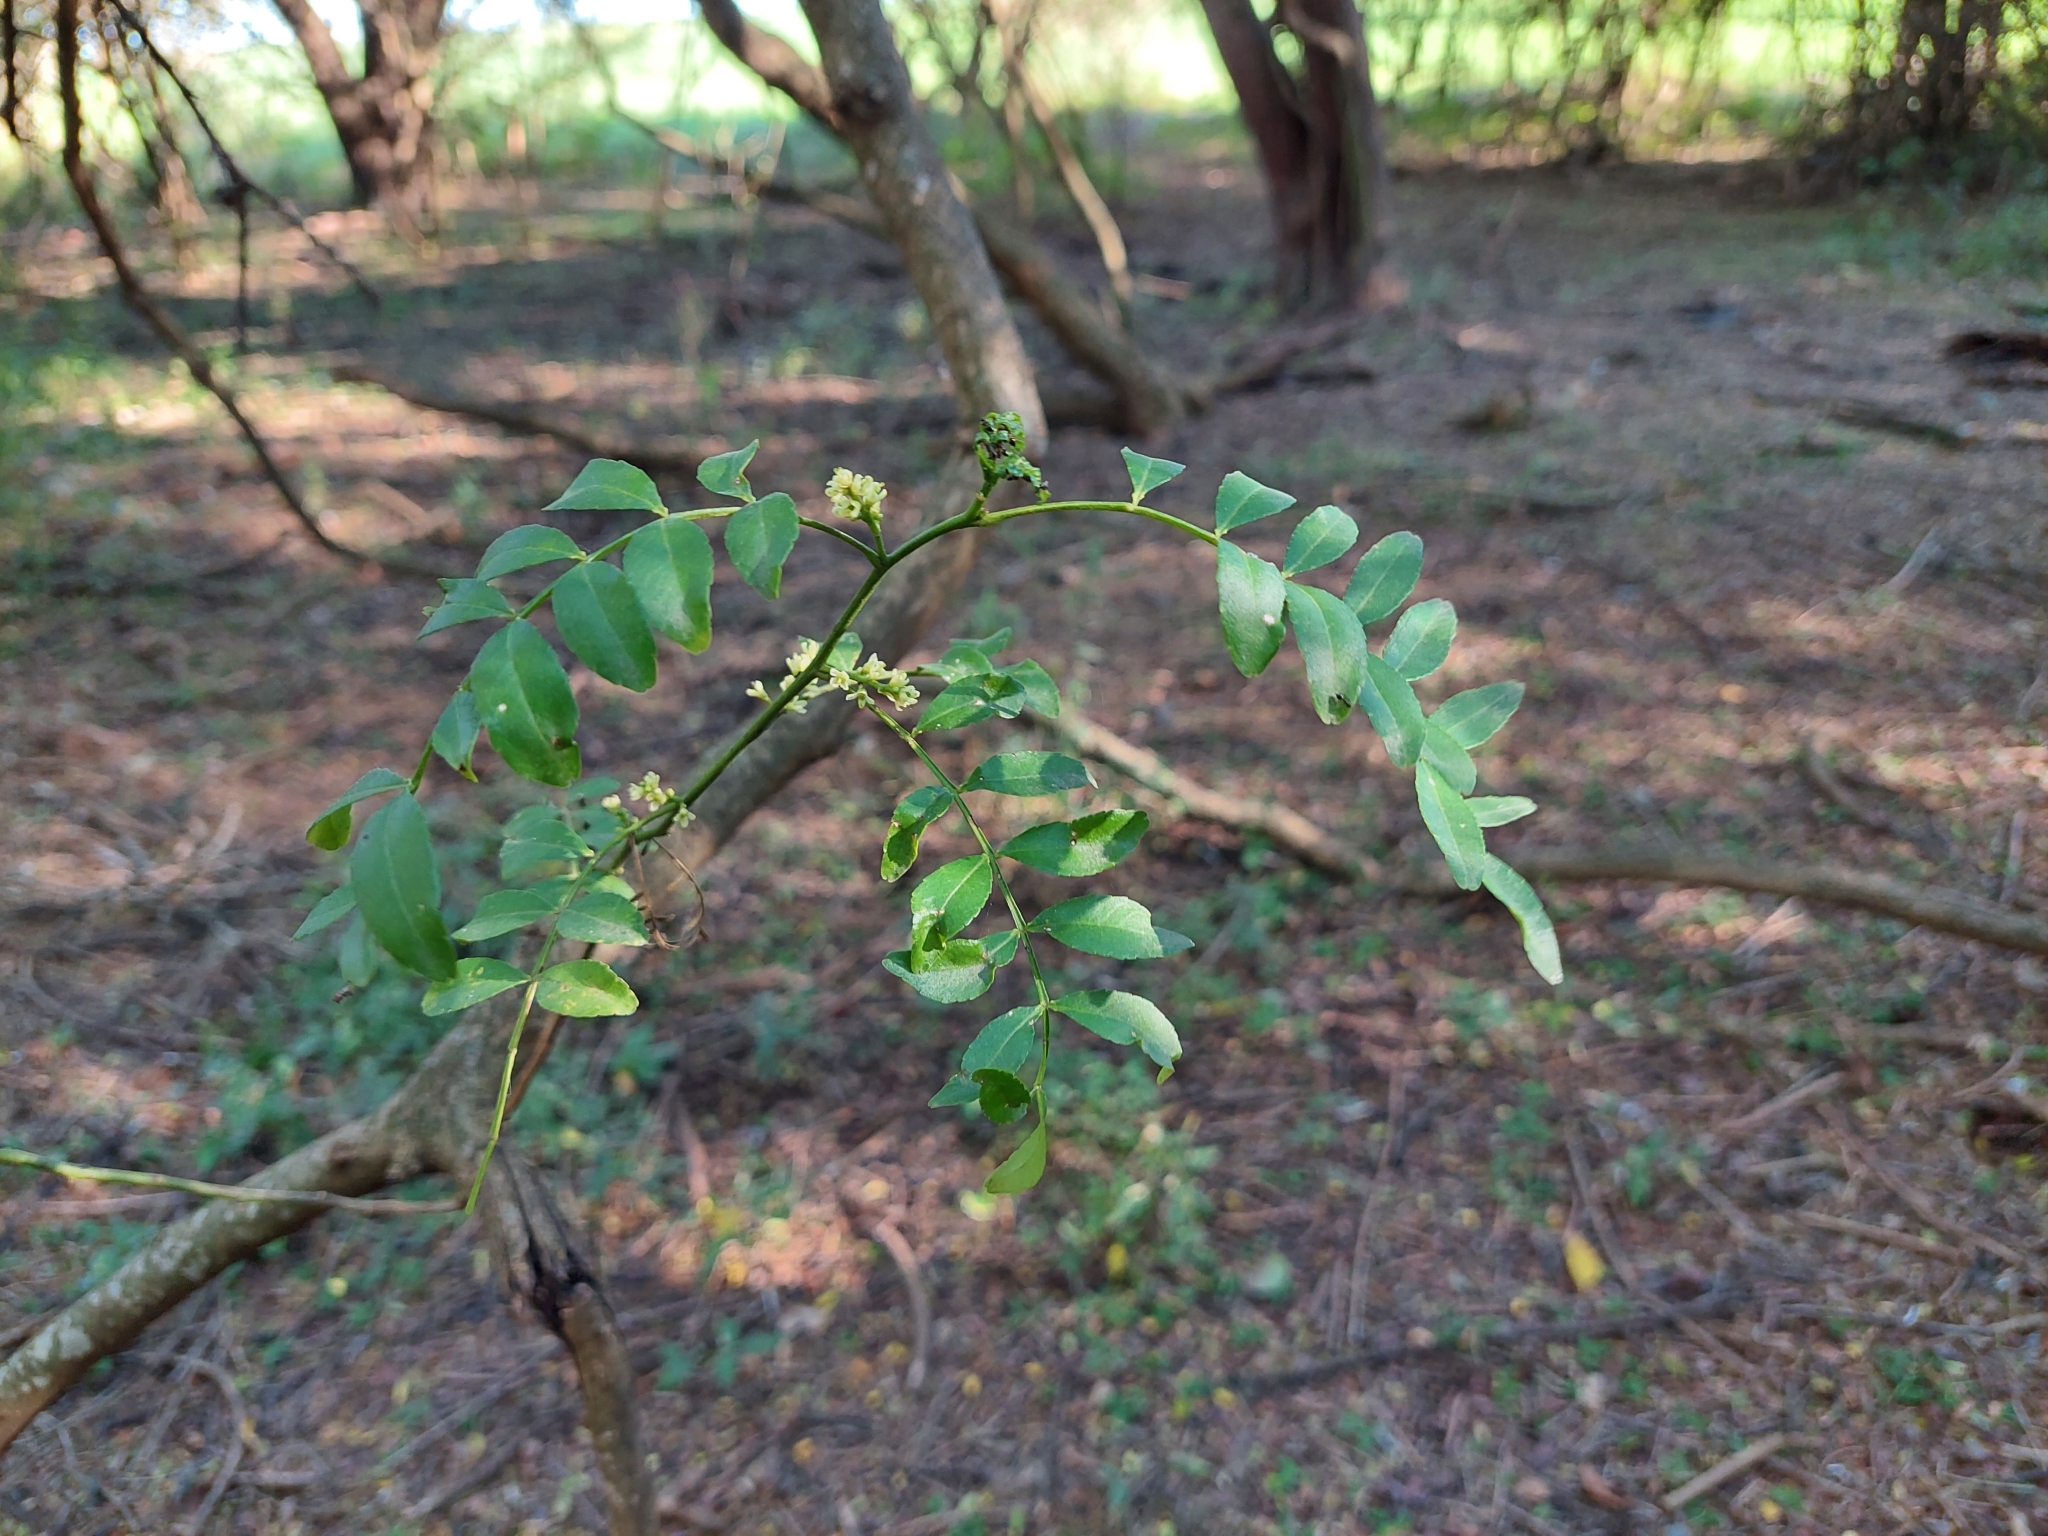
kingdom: Plantae
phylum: Tracheophyta
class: Magnoliopsida
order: Sapindales
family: Rutaceae
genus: Zanthoxylum
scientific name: Zanthoxylum fagara
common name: Lime prickly-ash
